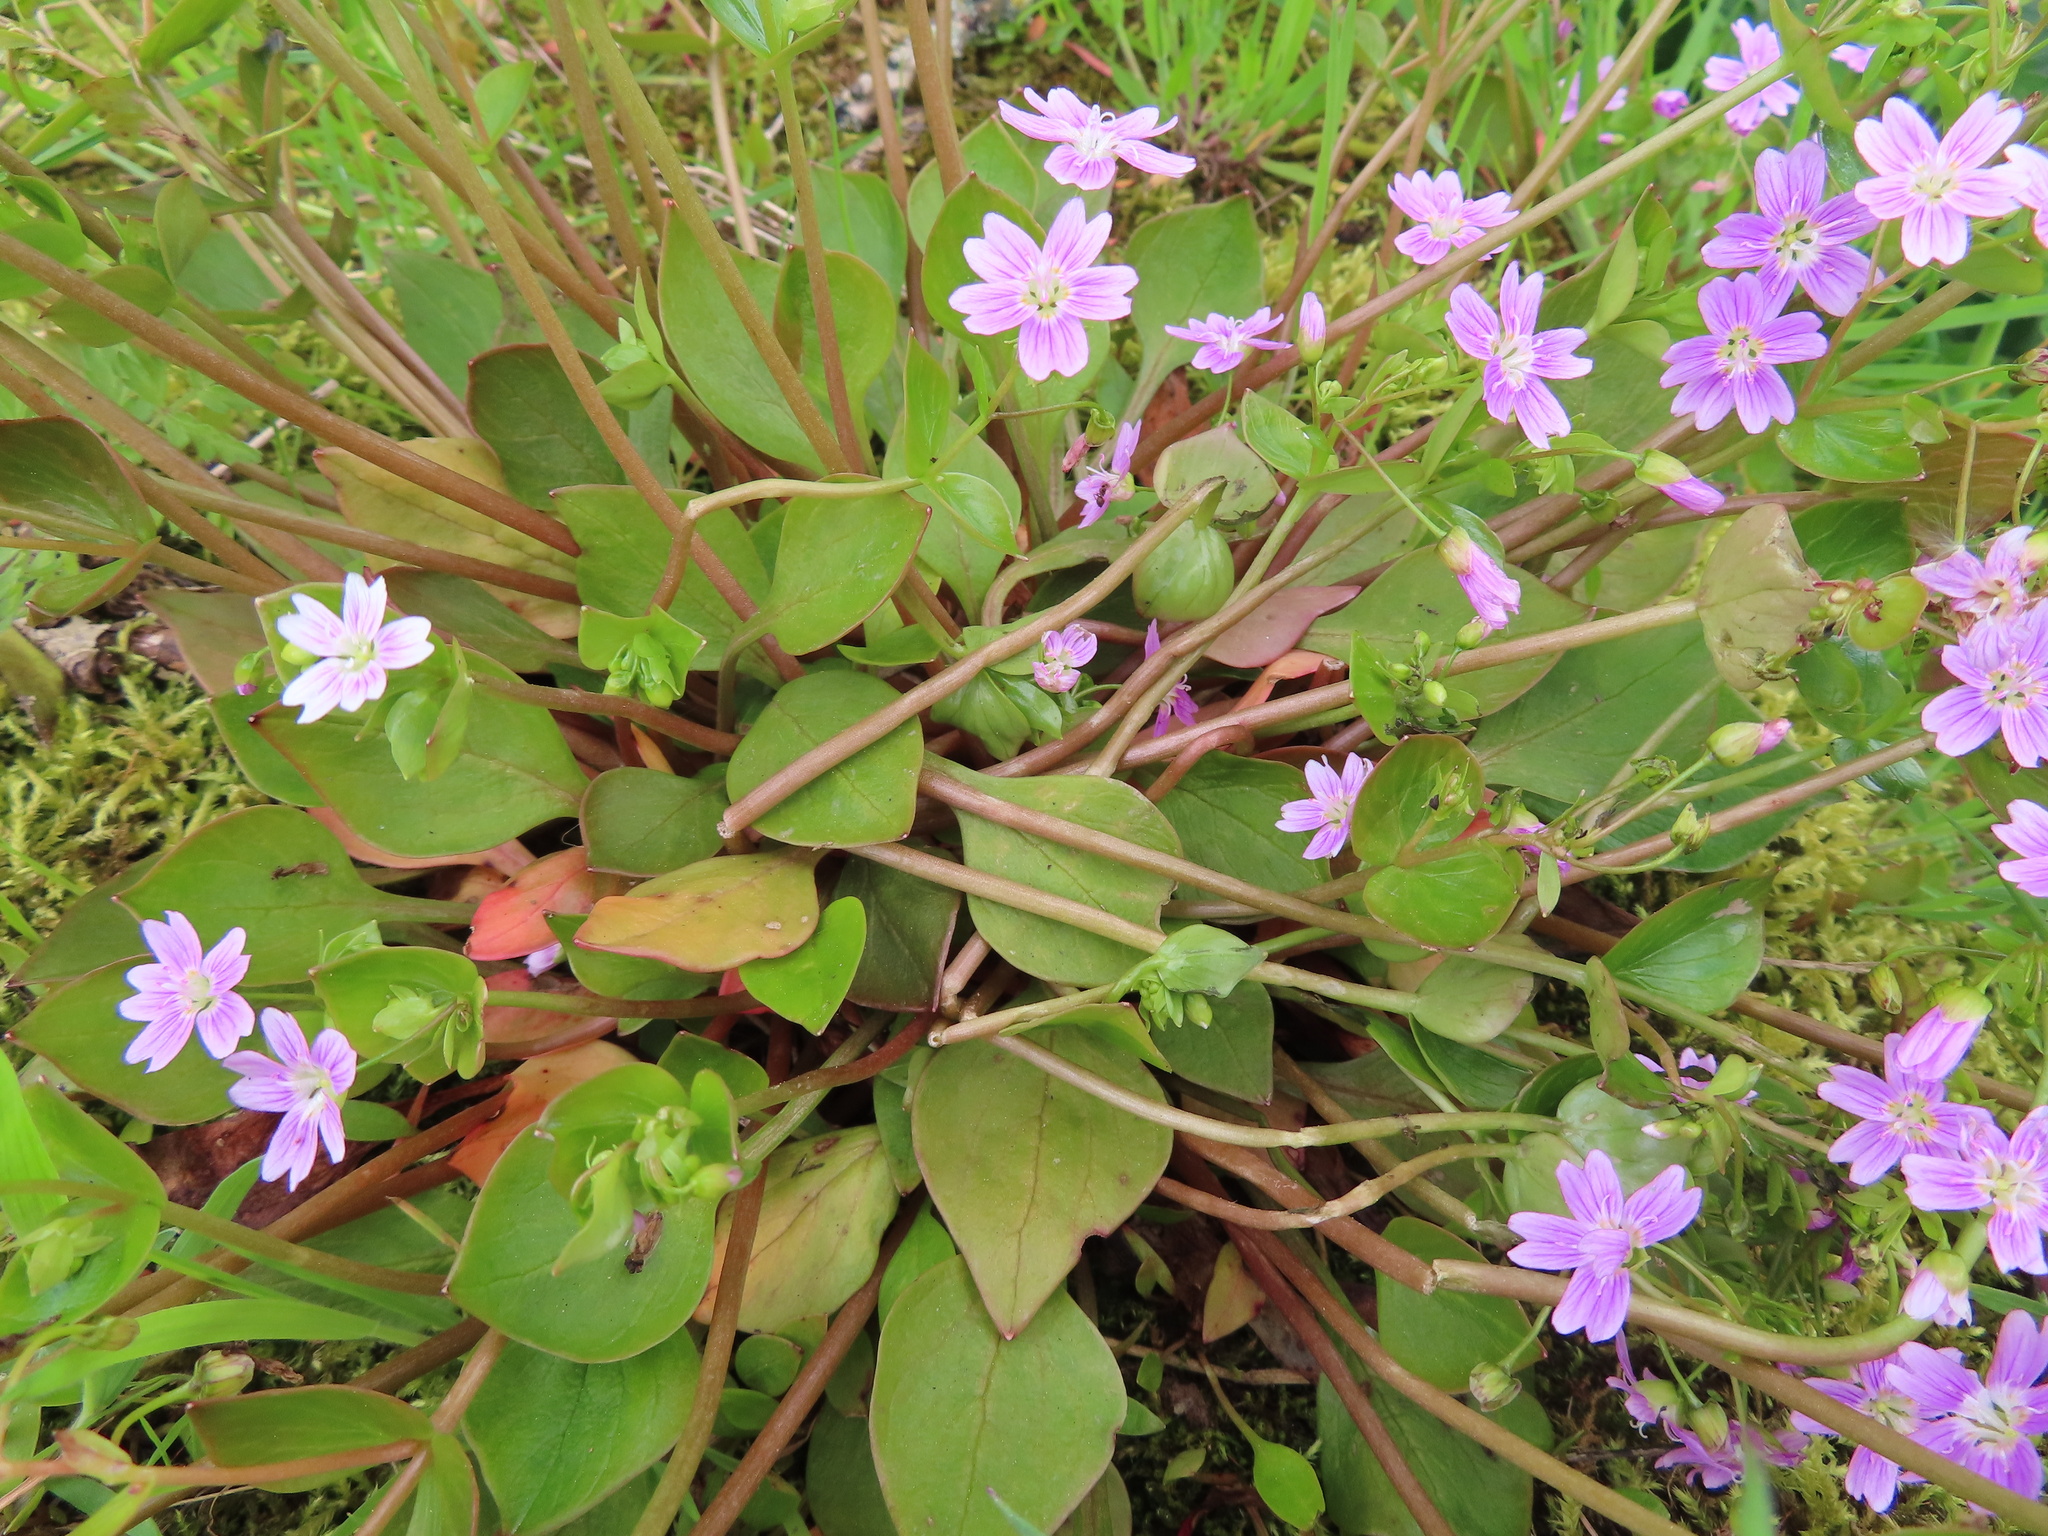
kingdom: Plantae
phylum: Tracheophyta
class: Magnoliopsida
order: Caryophyllales
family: Montiaceae
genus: Claytonia
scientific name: Claytonia sibirica
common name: Pink purslane
